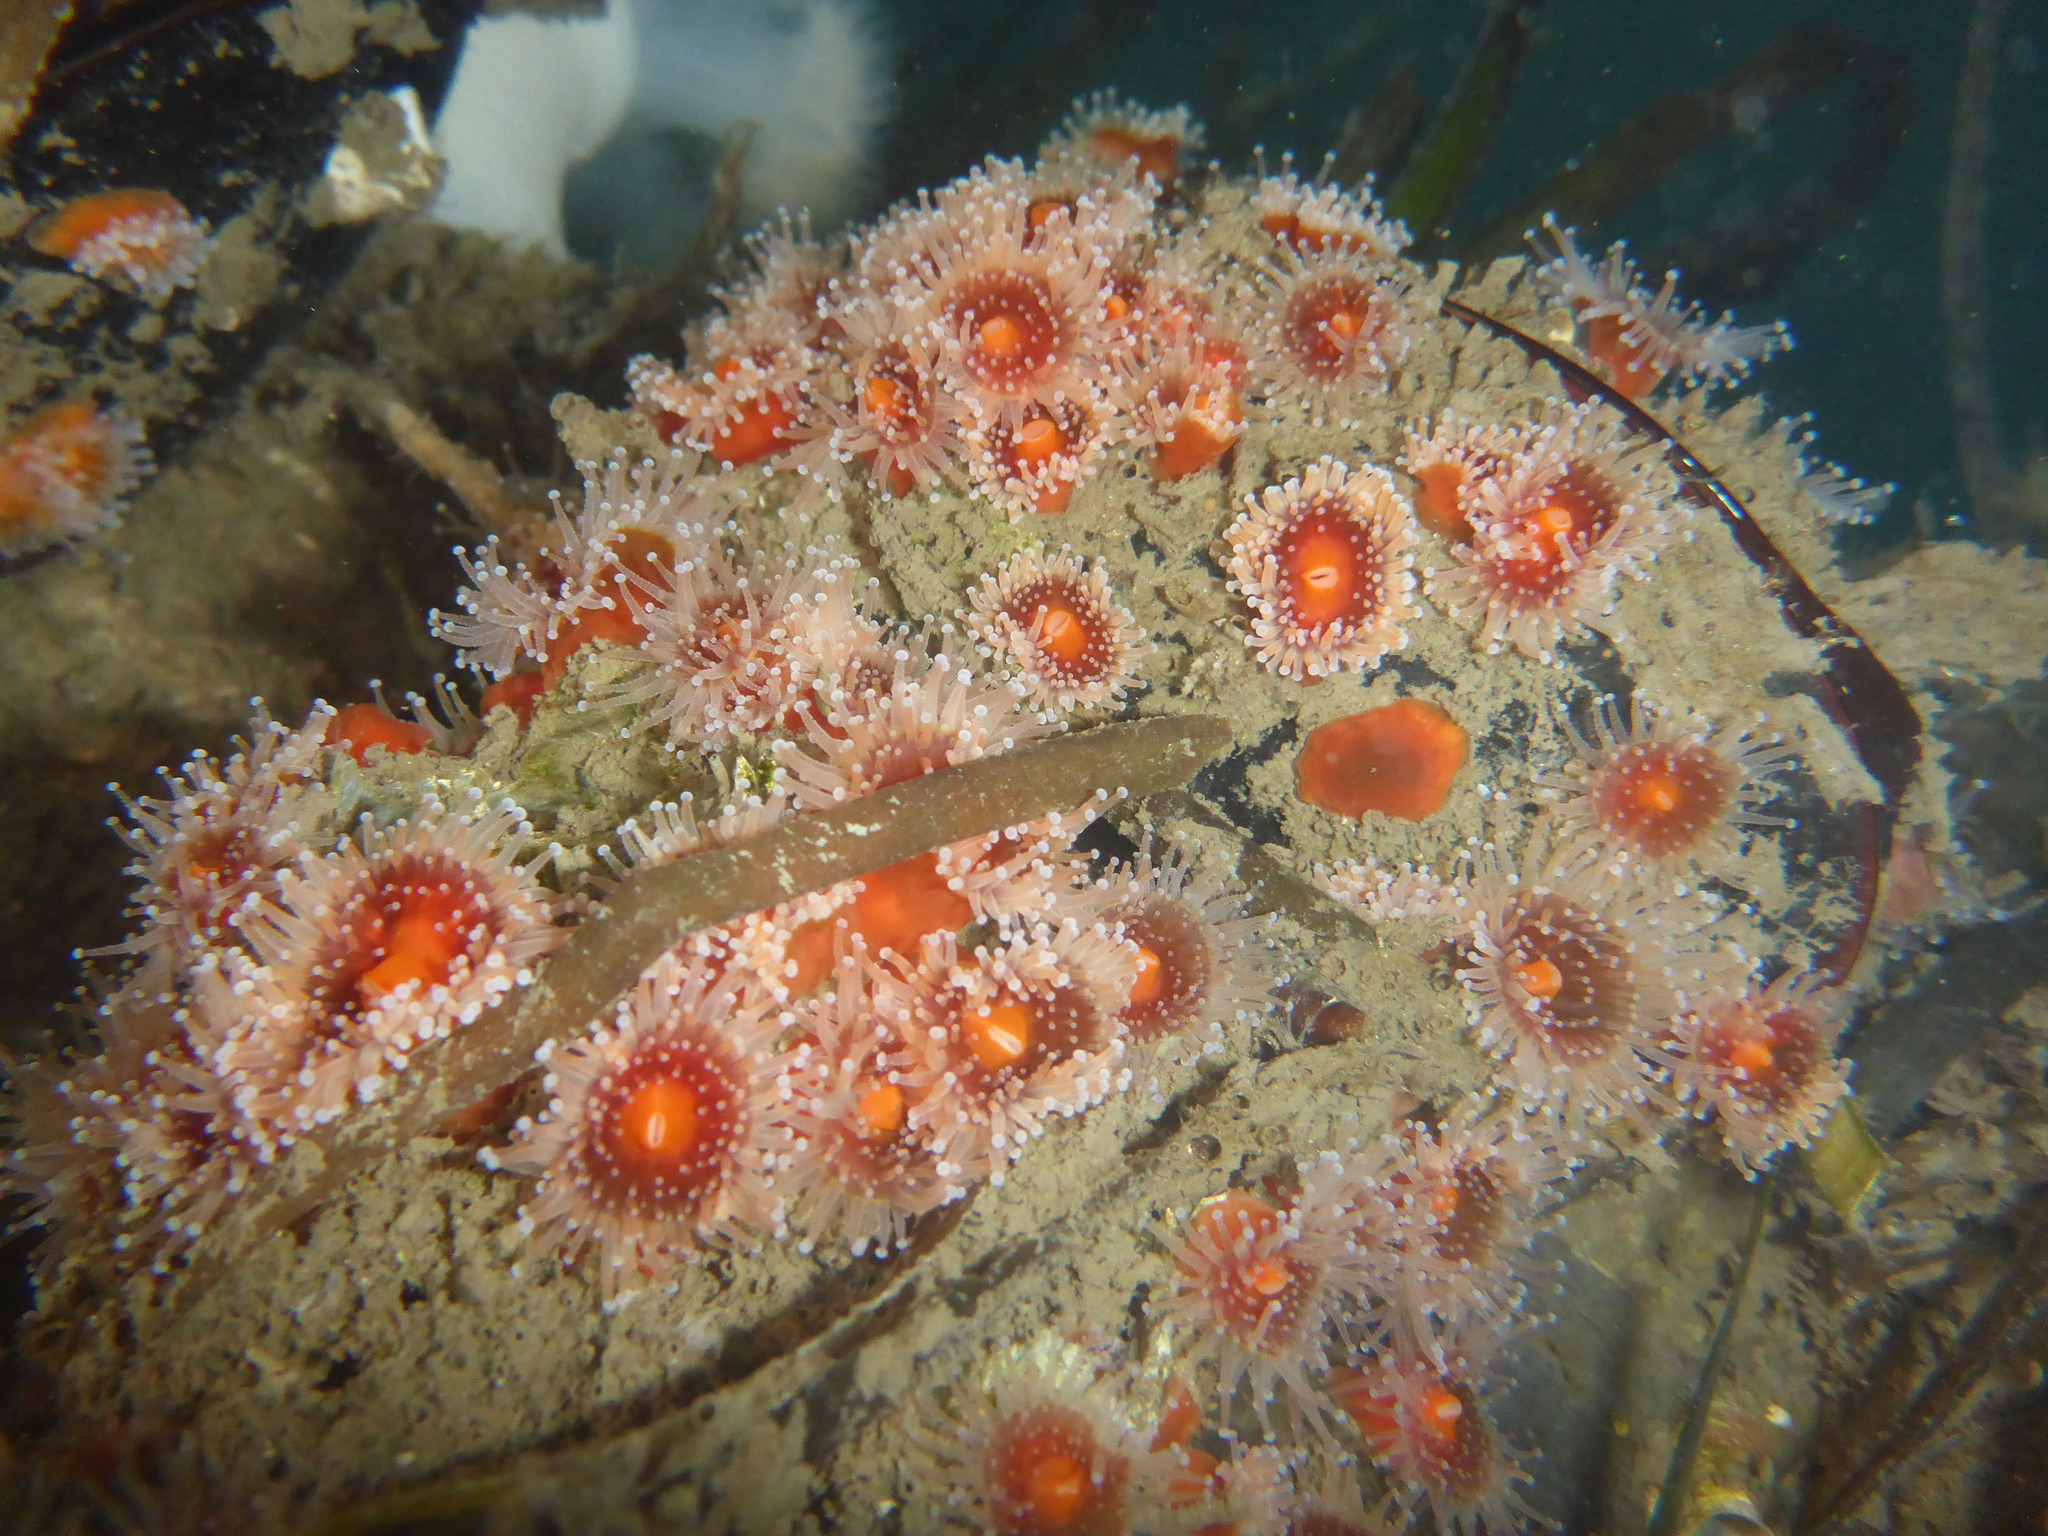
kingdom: Animalia
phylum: Cnidaria
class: Anthozoa
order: Corallimorpharia
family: Corallimorphidae
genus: Corynactis
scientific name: Corynactis californica
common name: Strawberry corallimorpharian
